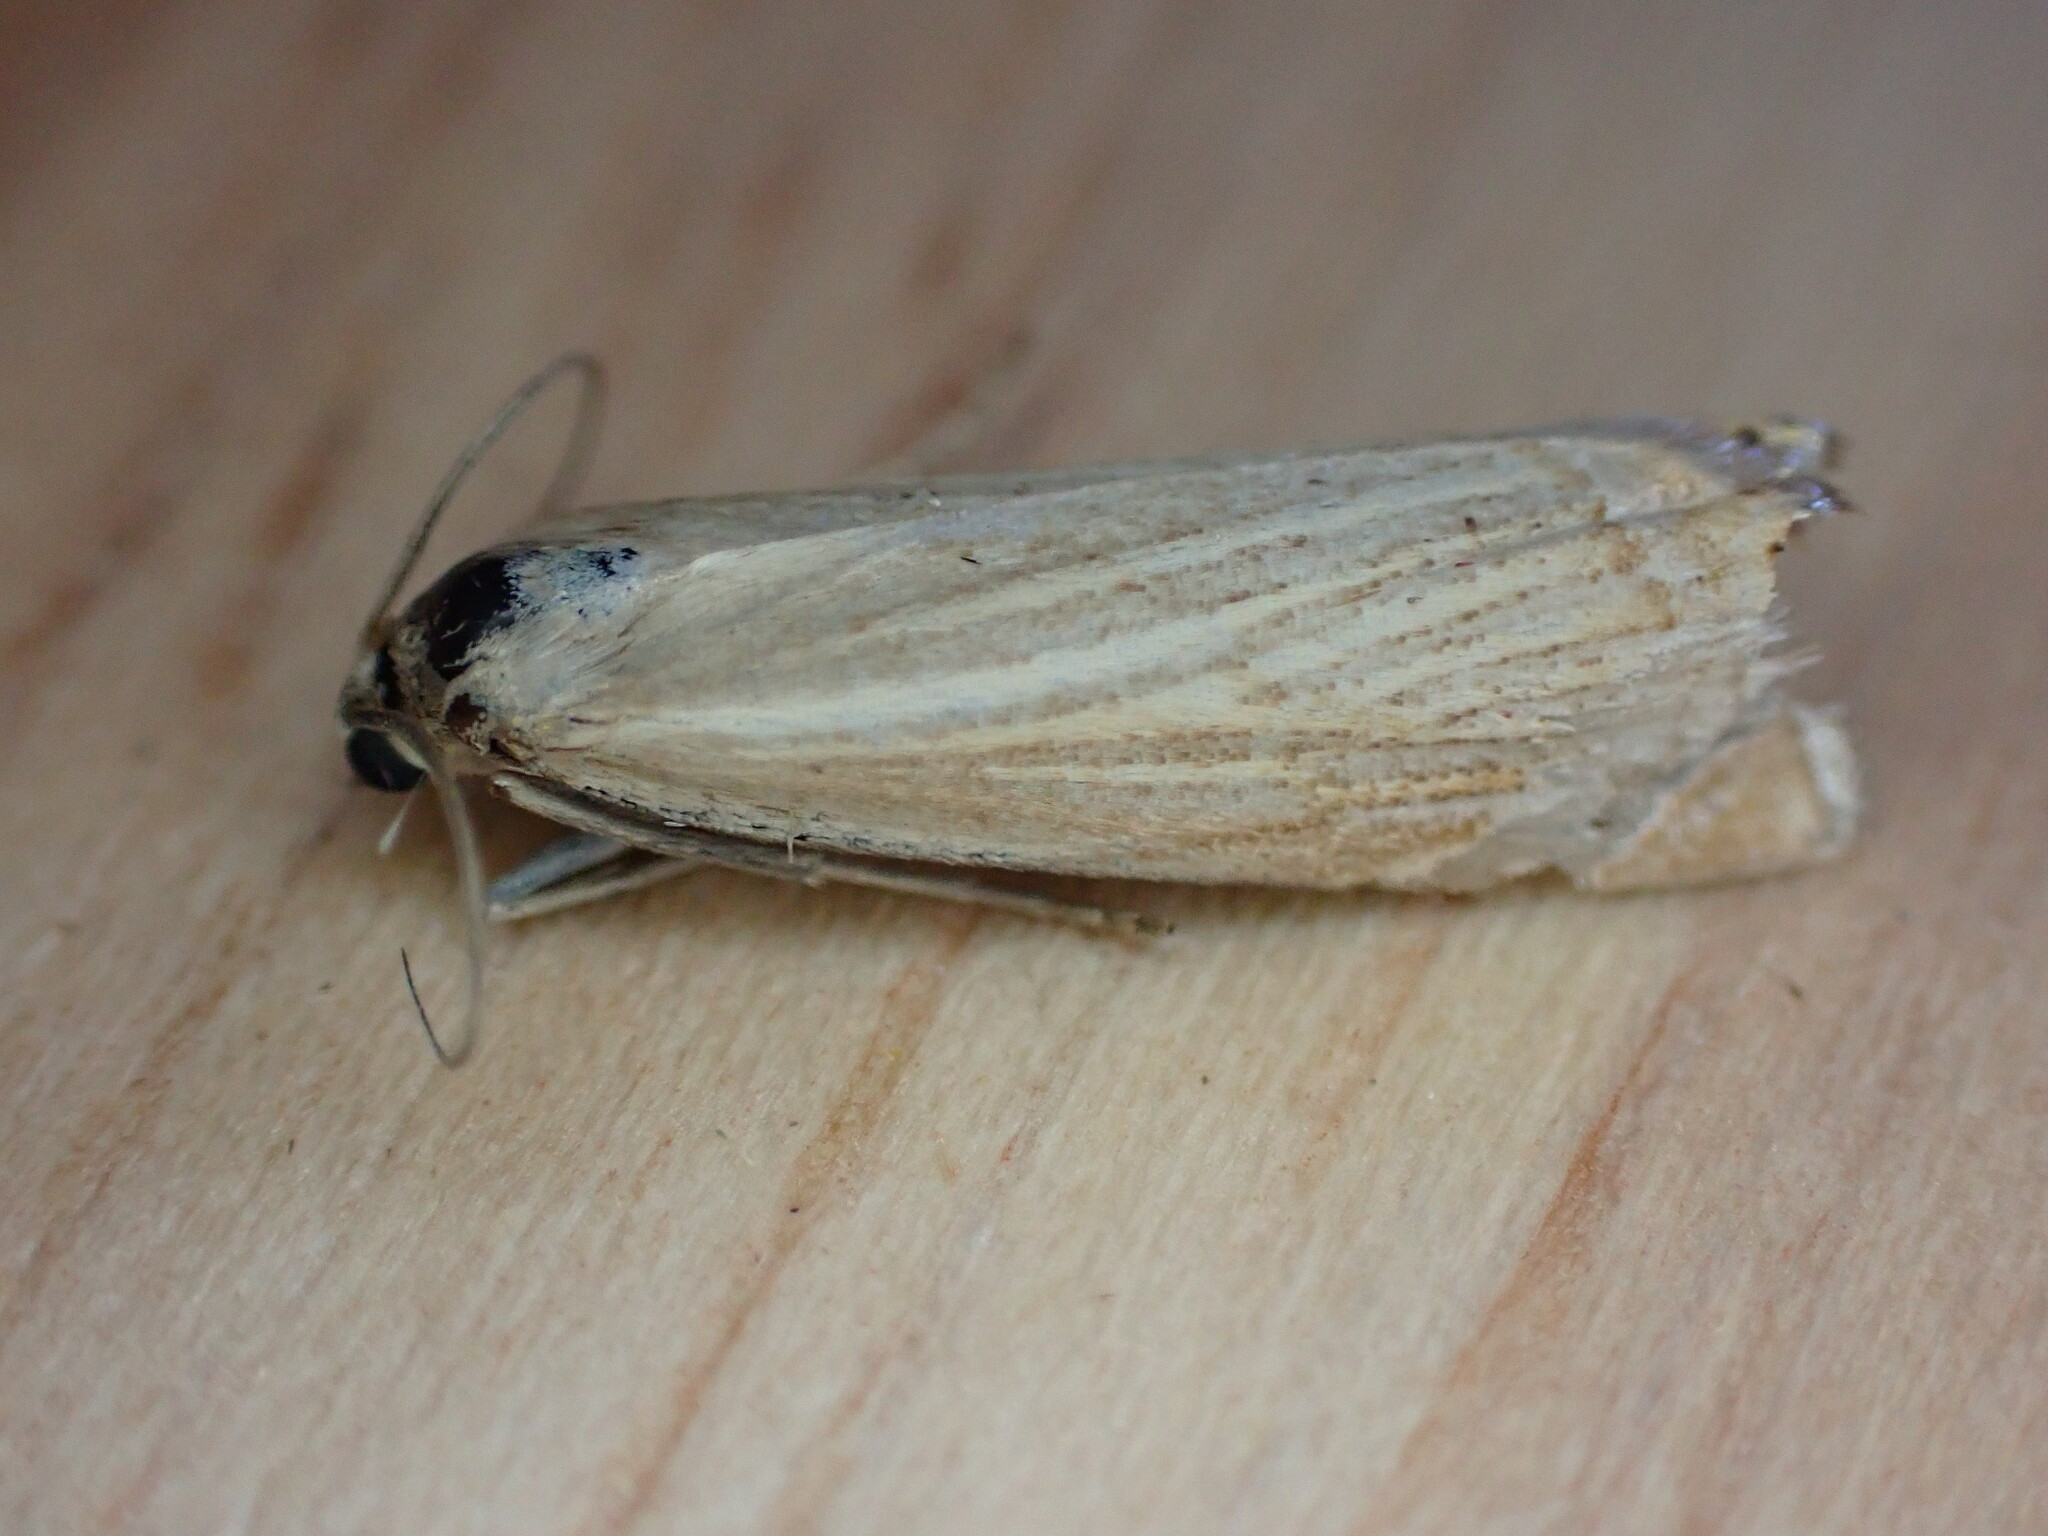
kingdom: Animalia
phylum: Arthropoda
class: Insecta
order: Lepidoptera
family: Crambidae
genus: Chrysoteuchia
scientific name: Chrysoteuchia culmella
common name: Garden grass-veneer
